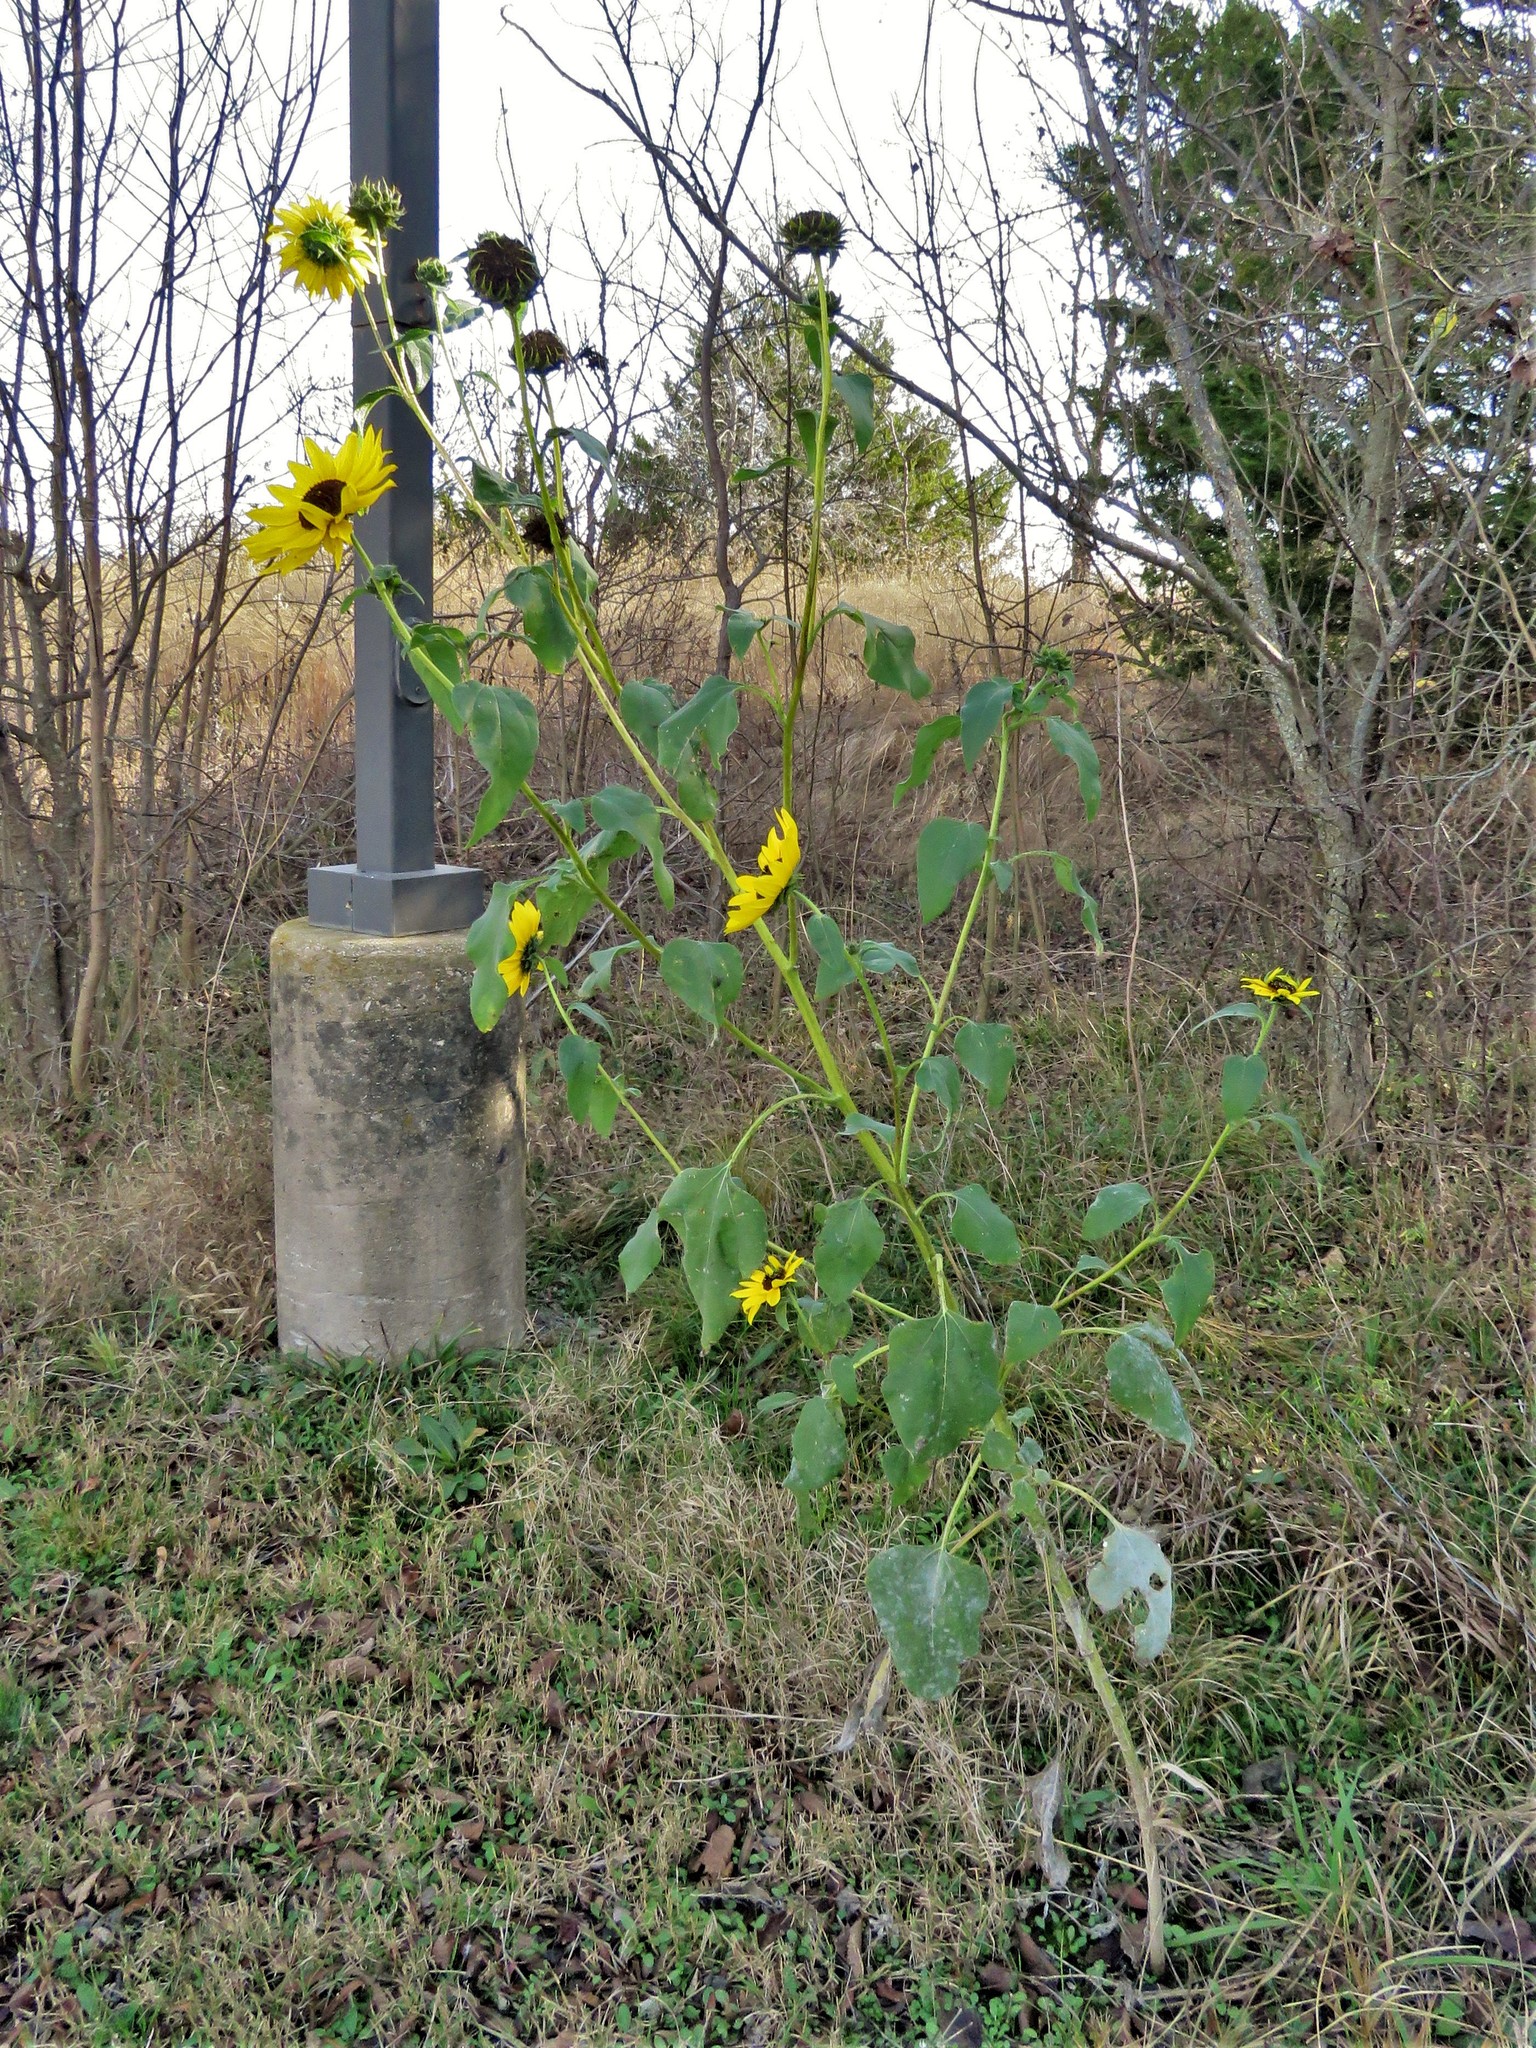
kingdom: Plantae
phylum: Tracheophyta
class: Magnoliopsida
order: Asterales
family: Asteraceae
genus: Helianthus
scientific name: Helianthus annuus
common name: Sunflower
